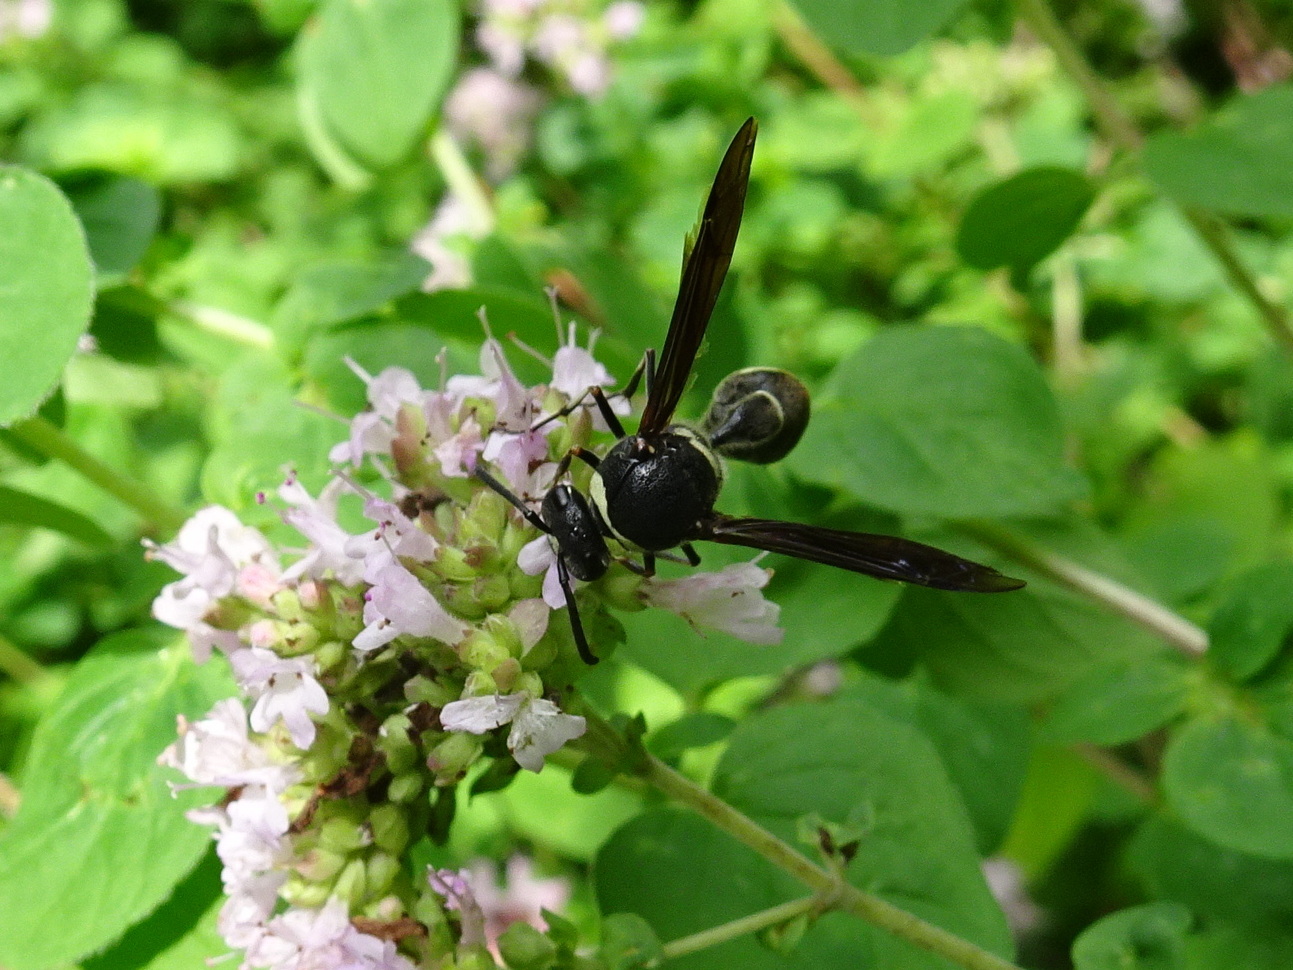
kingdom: Animalia
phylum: Arthropoda
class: Insecta
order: Hymenoptera
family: Vespidae
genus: Eumenes
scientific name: Eumenes fraternus
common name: Fraternal potter wasp
